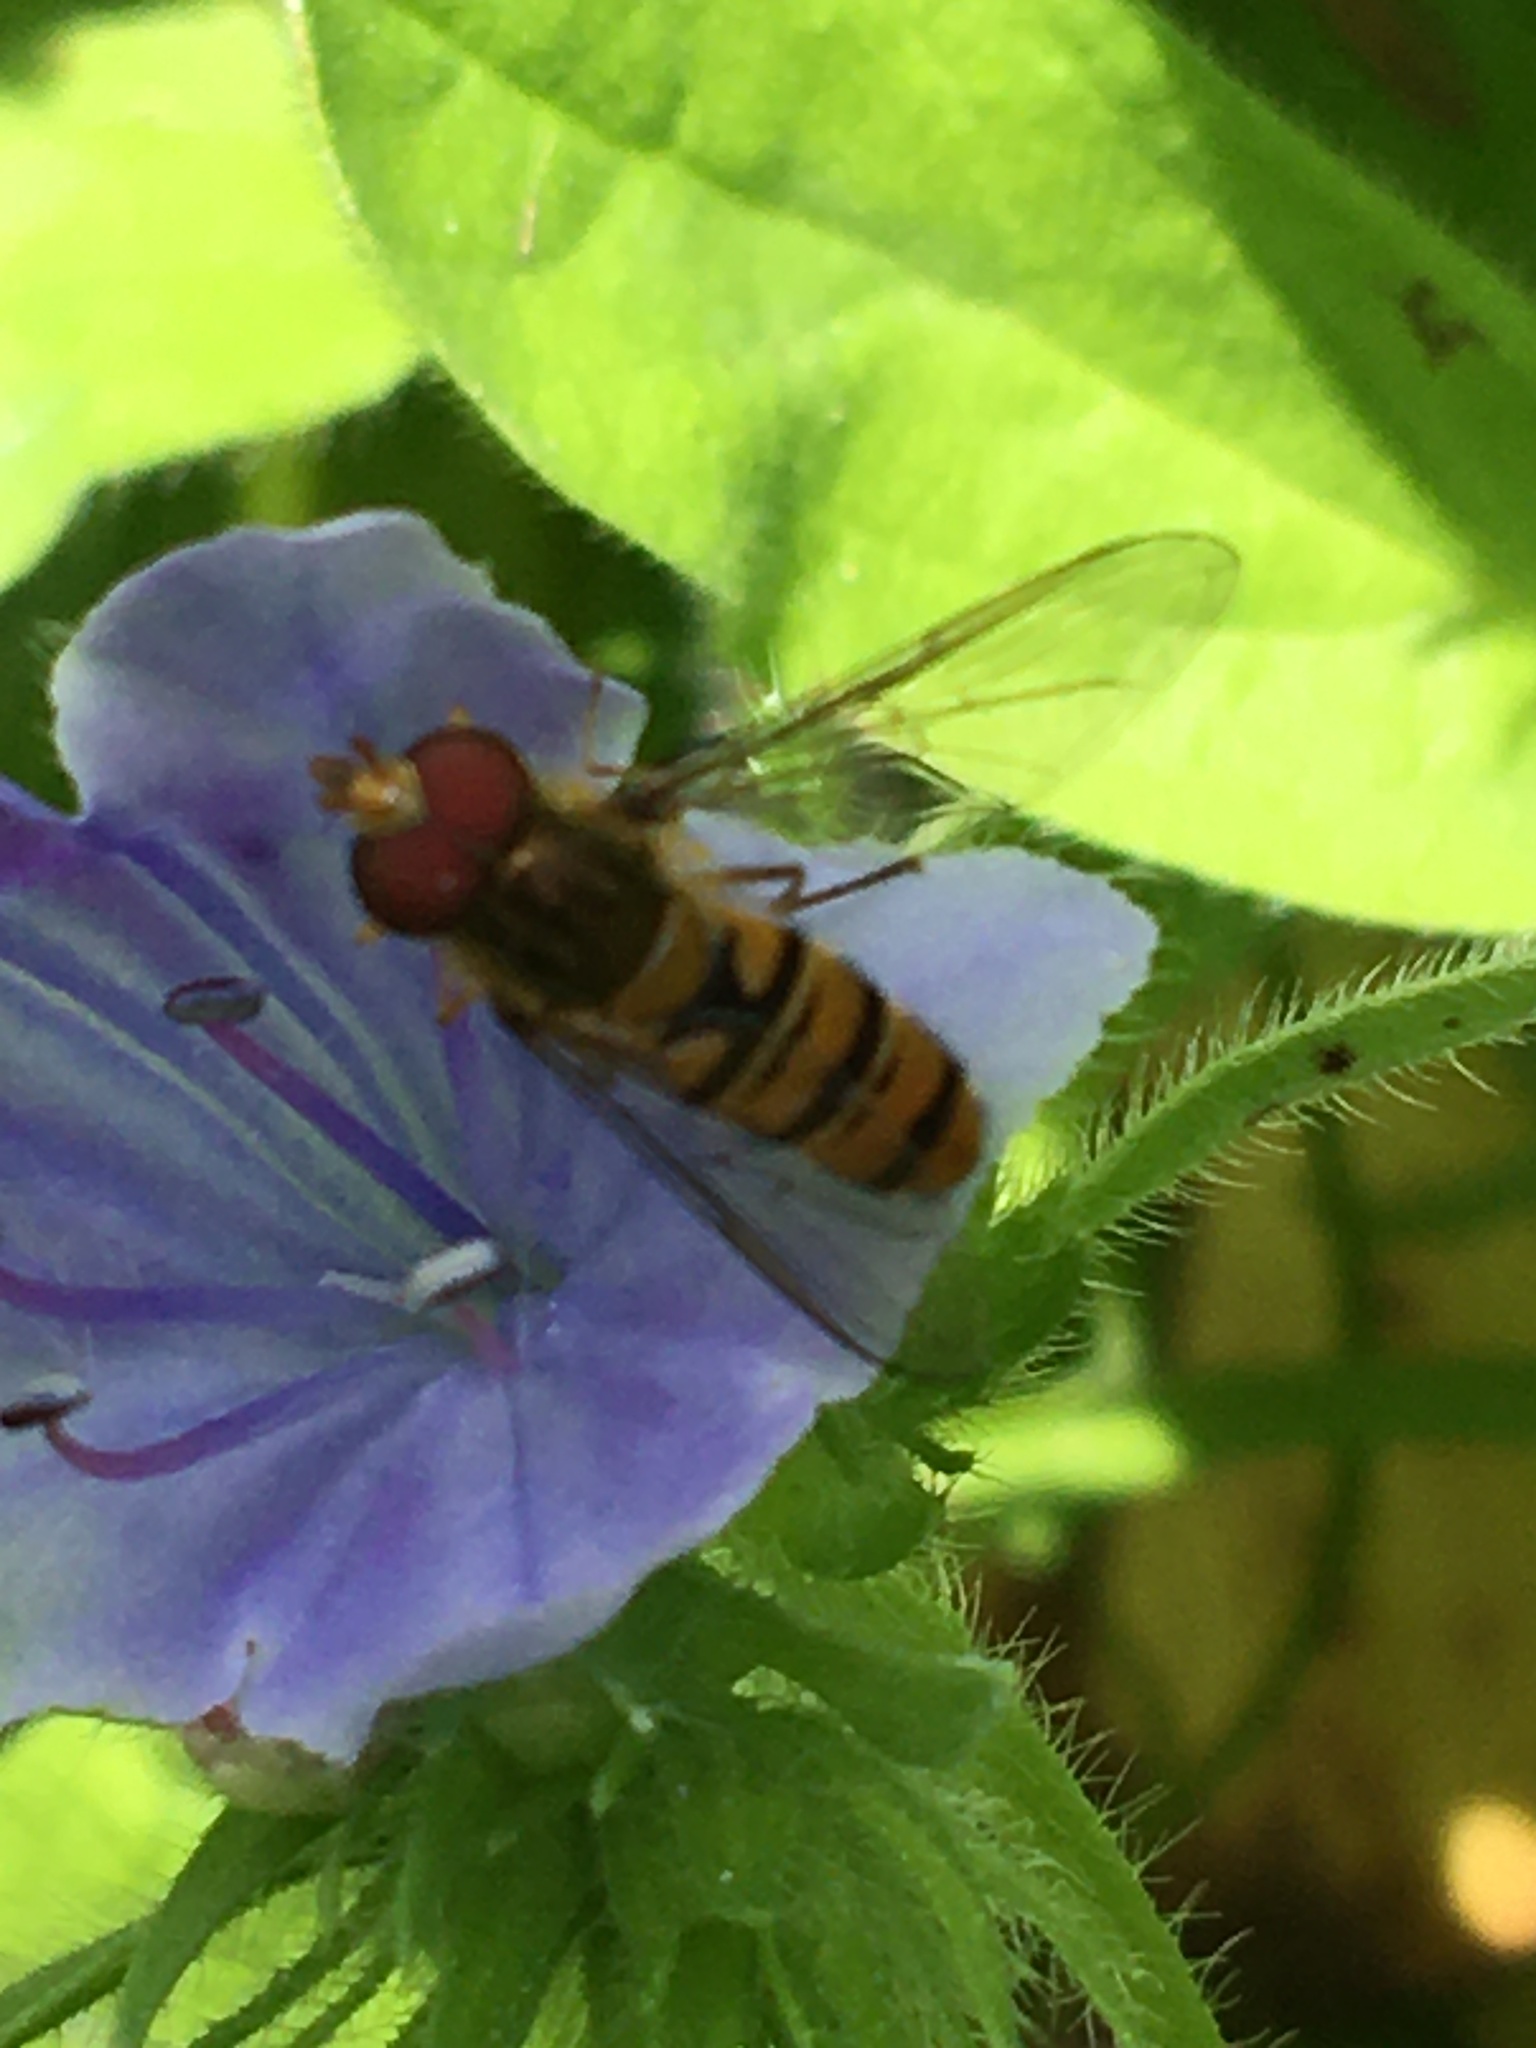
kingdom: Animalia
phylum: Arthropoda
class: Insecta
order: Diptera
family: Syrphidae
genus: Episyrphus
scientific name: Episyrphus balteatus
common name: Marmalade hoverfly
